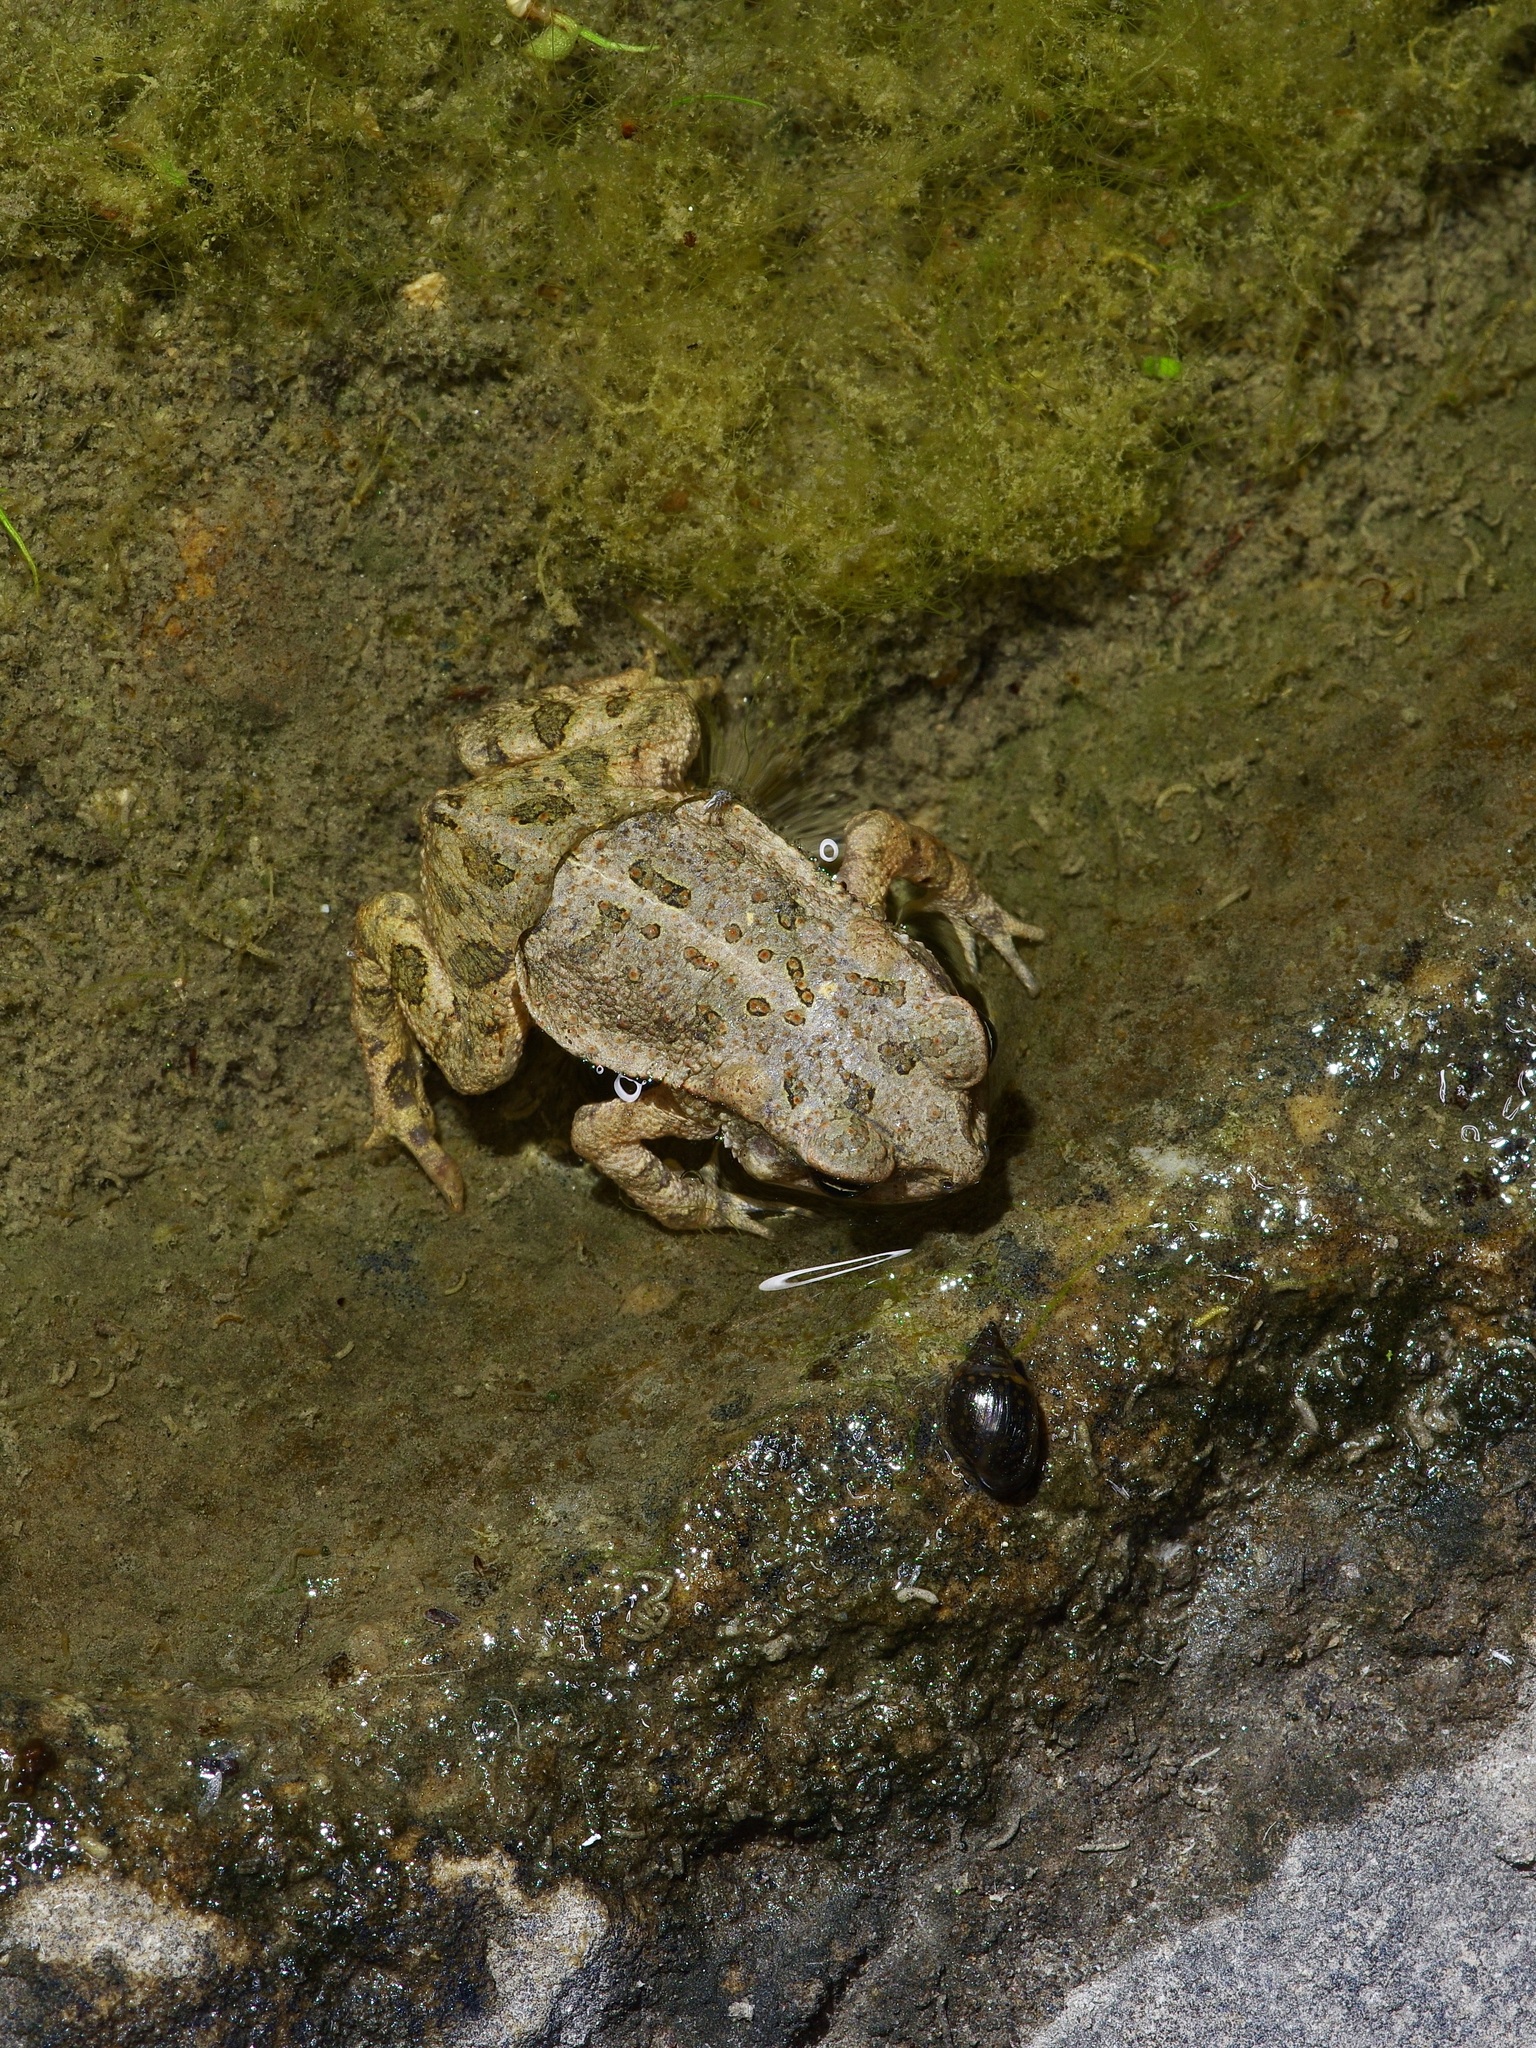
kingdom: Animalia
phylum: Chordata
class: Amphibia
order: Anura
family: Bufonidae
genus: Incilius
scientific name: Incilius nebulifer
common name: Gulf coast toad
